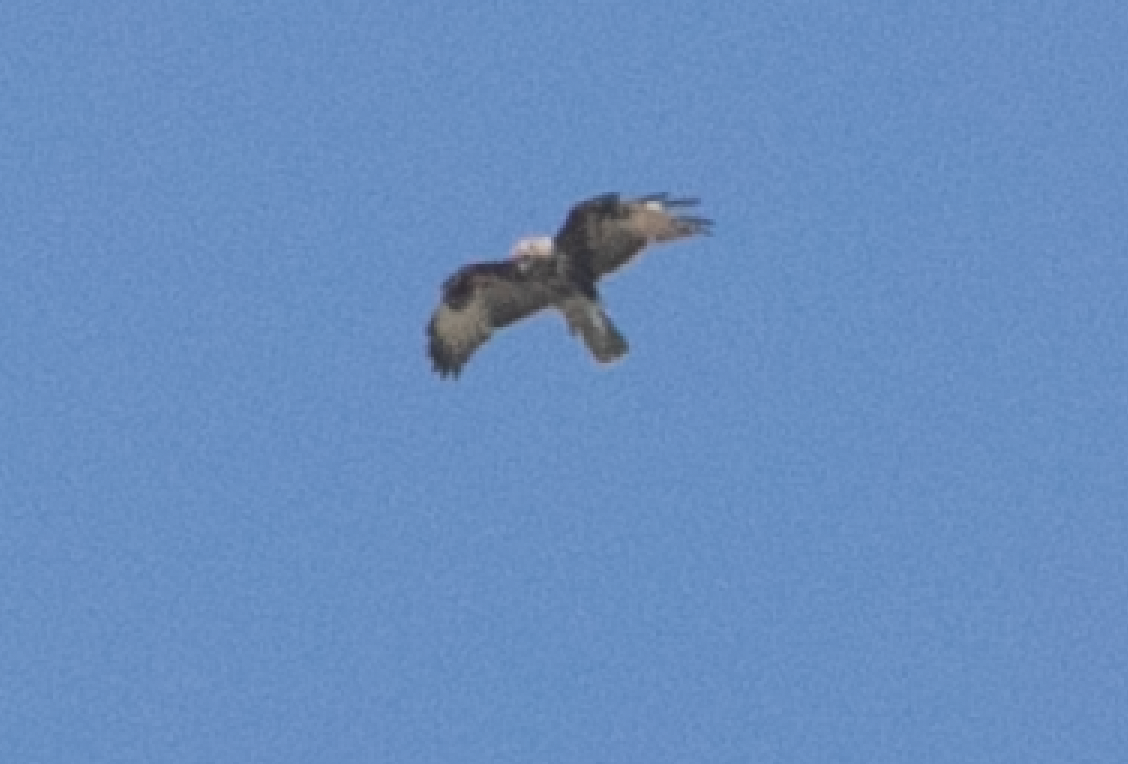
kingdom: Animalia
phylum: Chordata
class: Aves
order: Accipitriformes
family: Accipitridae
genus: Buteo
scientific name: Buteo buteo
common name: Common buzzard
